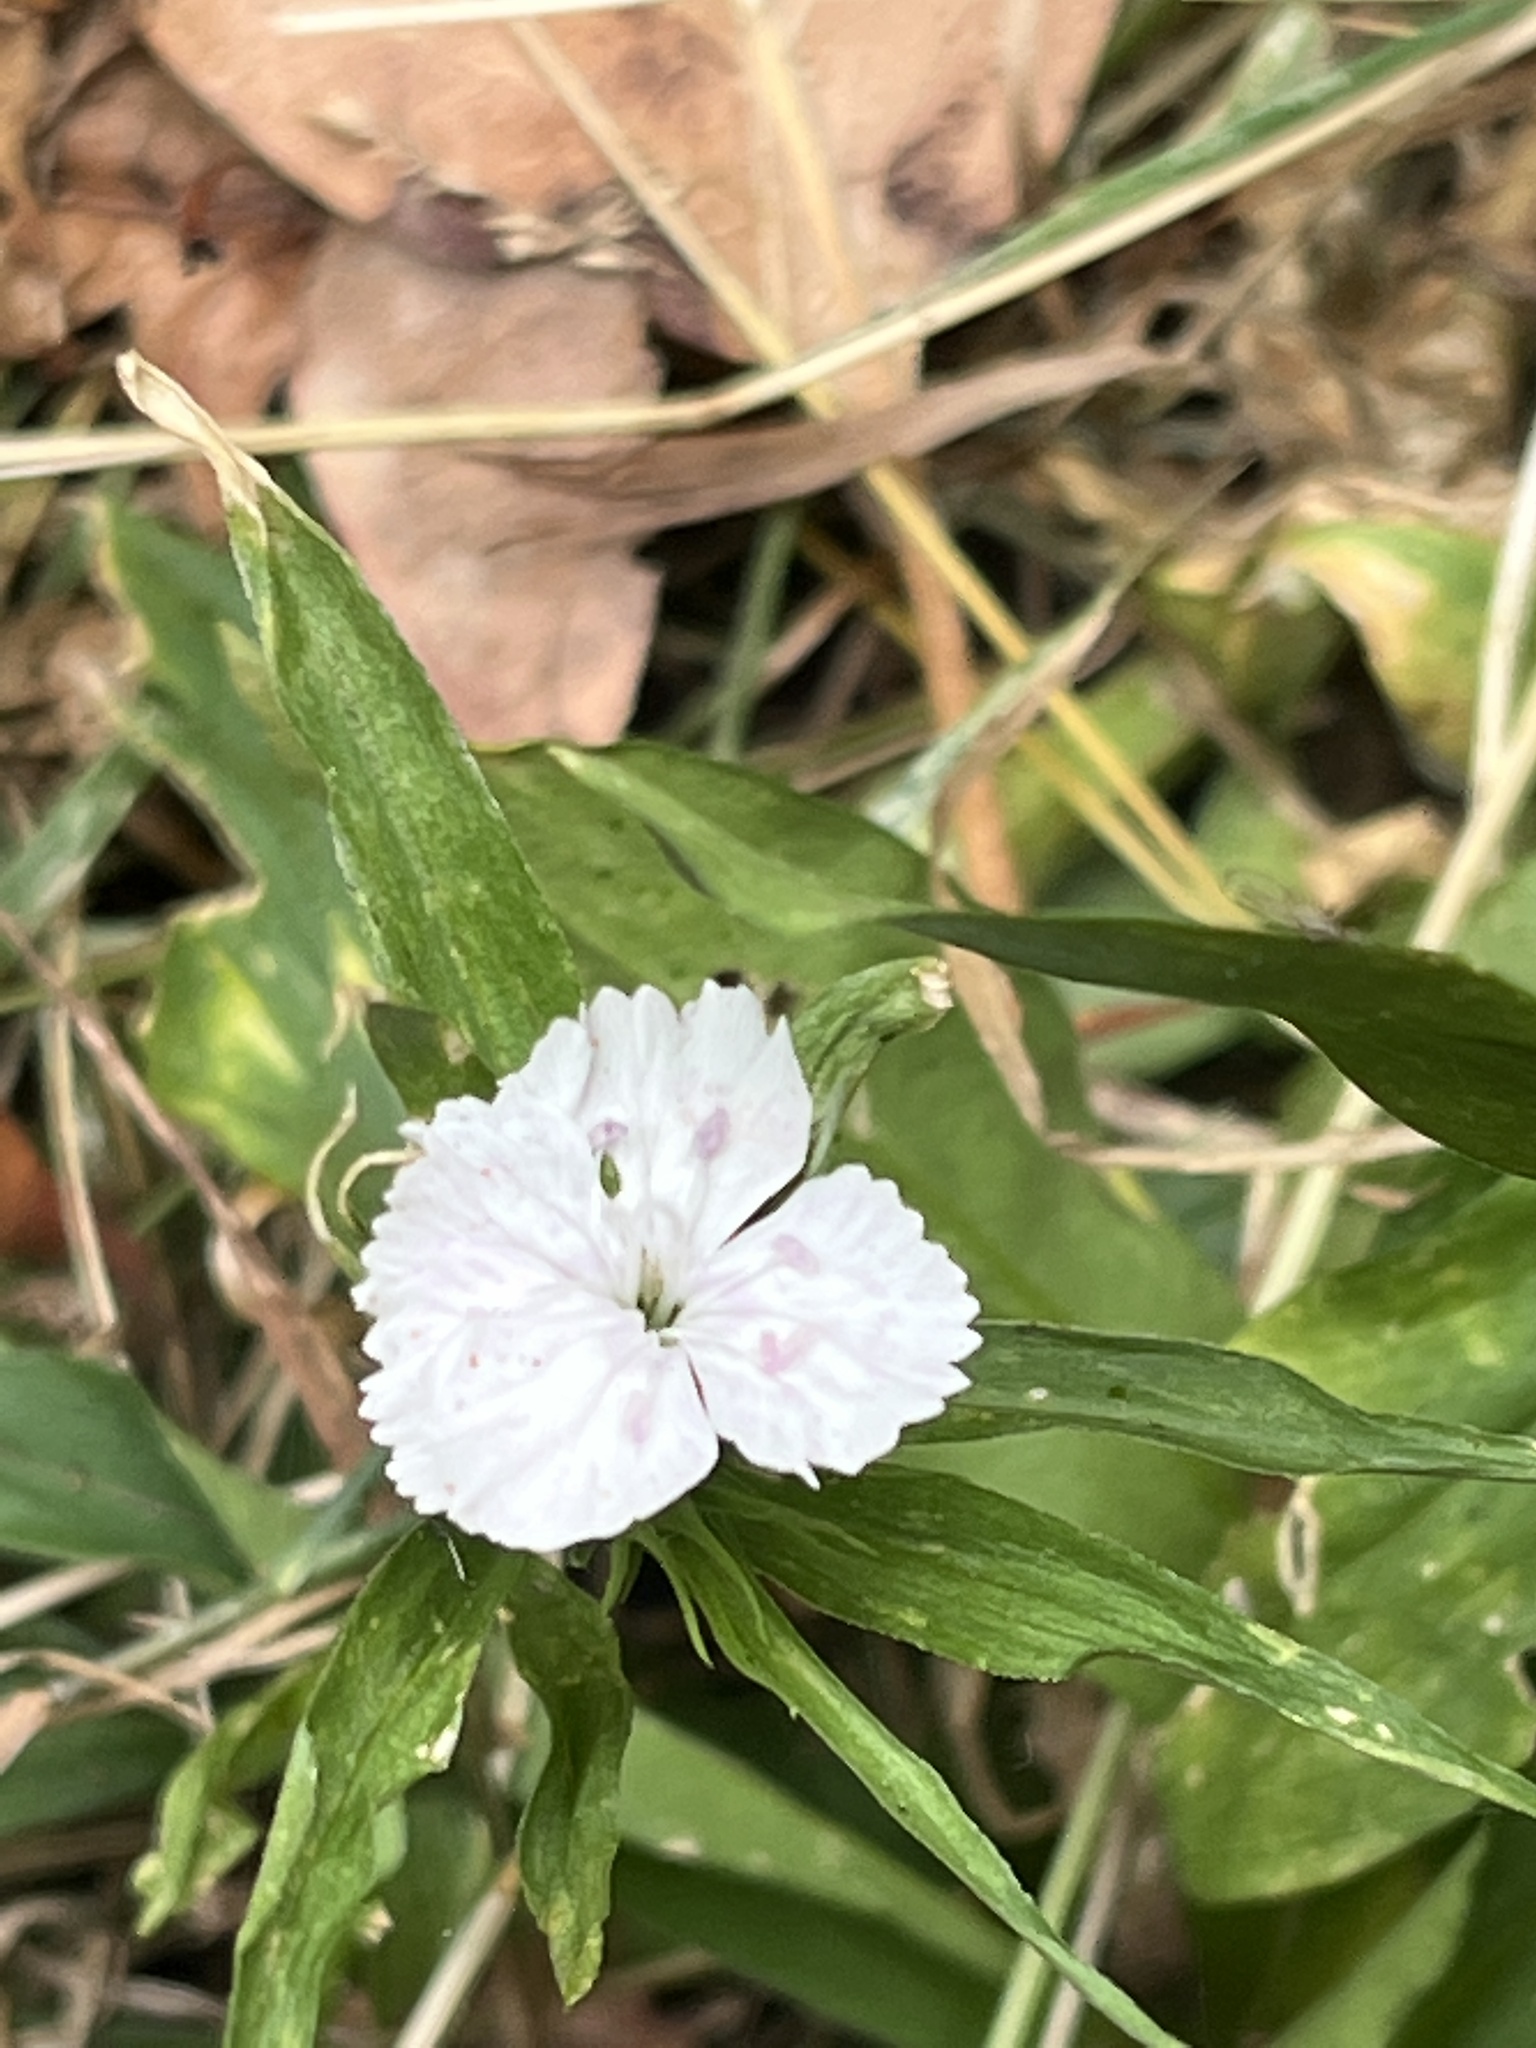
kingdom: Plantae
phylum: Tracheophyta
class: Magnoliopsida
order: Caryophyllales
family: Caryophyllaceae
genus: Dianthus
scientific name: Dianthus barbatus
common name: Sweet-william
